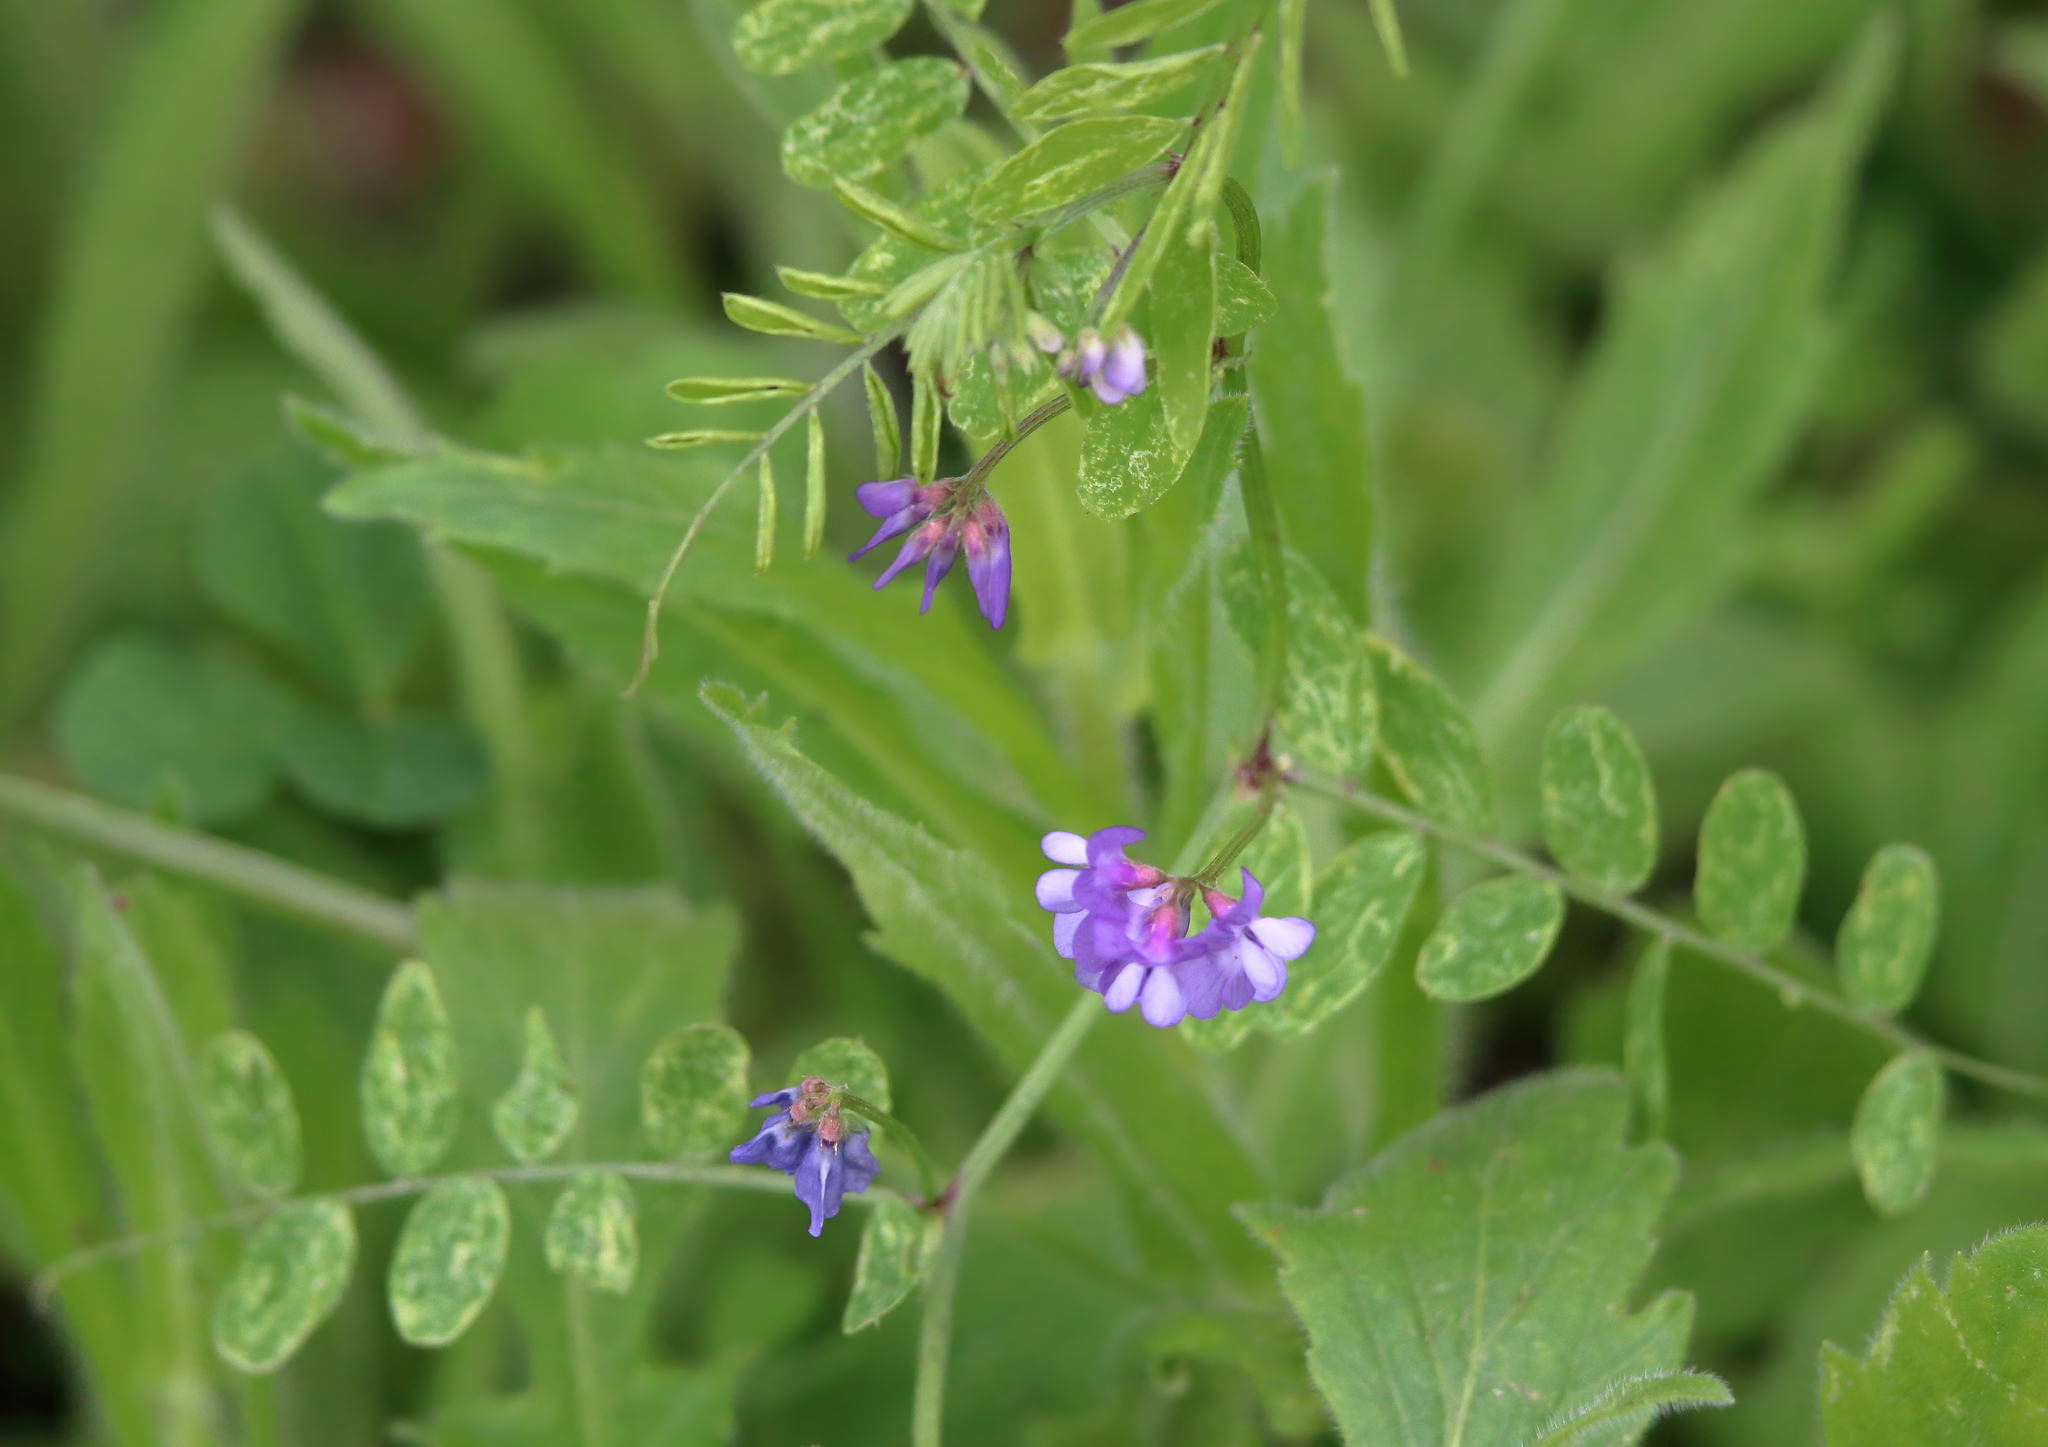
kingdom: Plantae
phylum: Tracheophyta
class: Magnoliopsida
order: Fabales
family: Fabaceae
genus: Vicia
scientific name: Vicia ludoviciana
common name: Louisiana vetch
